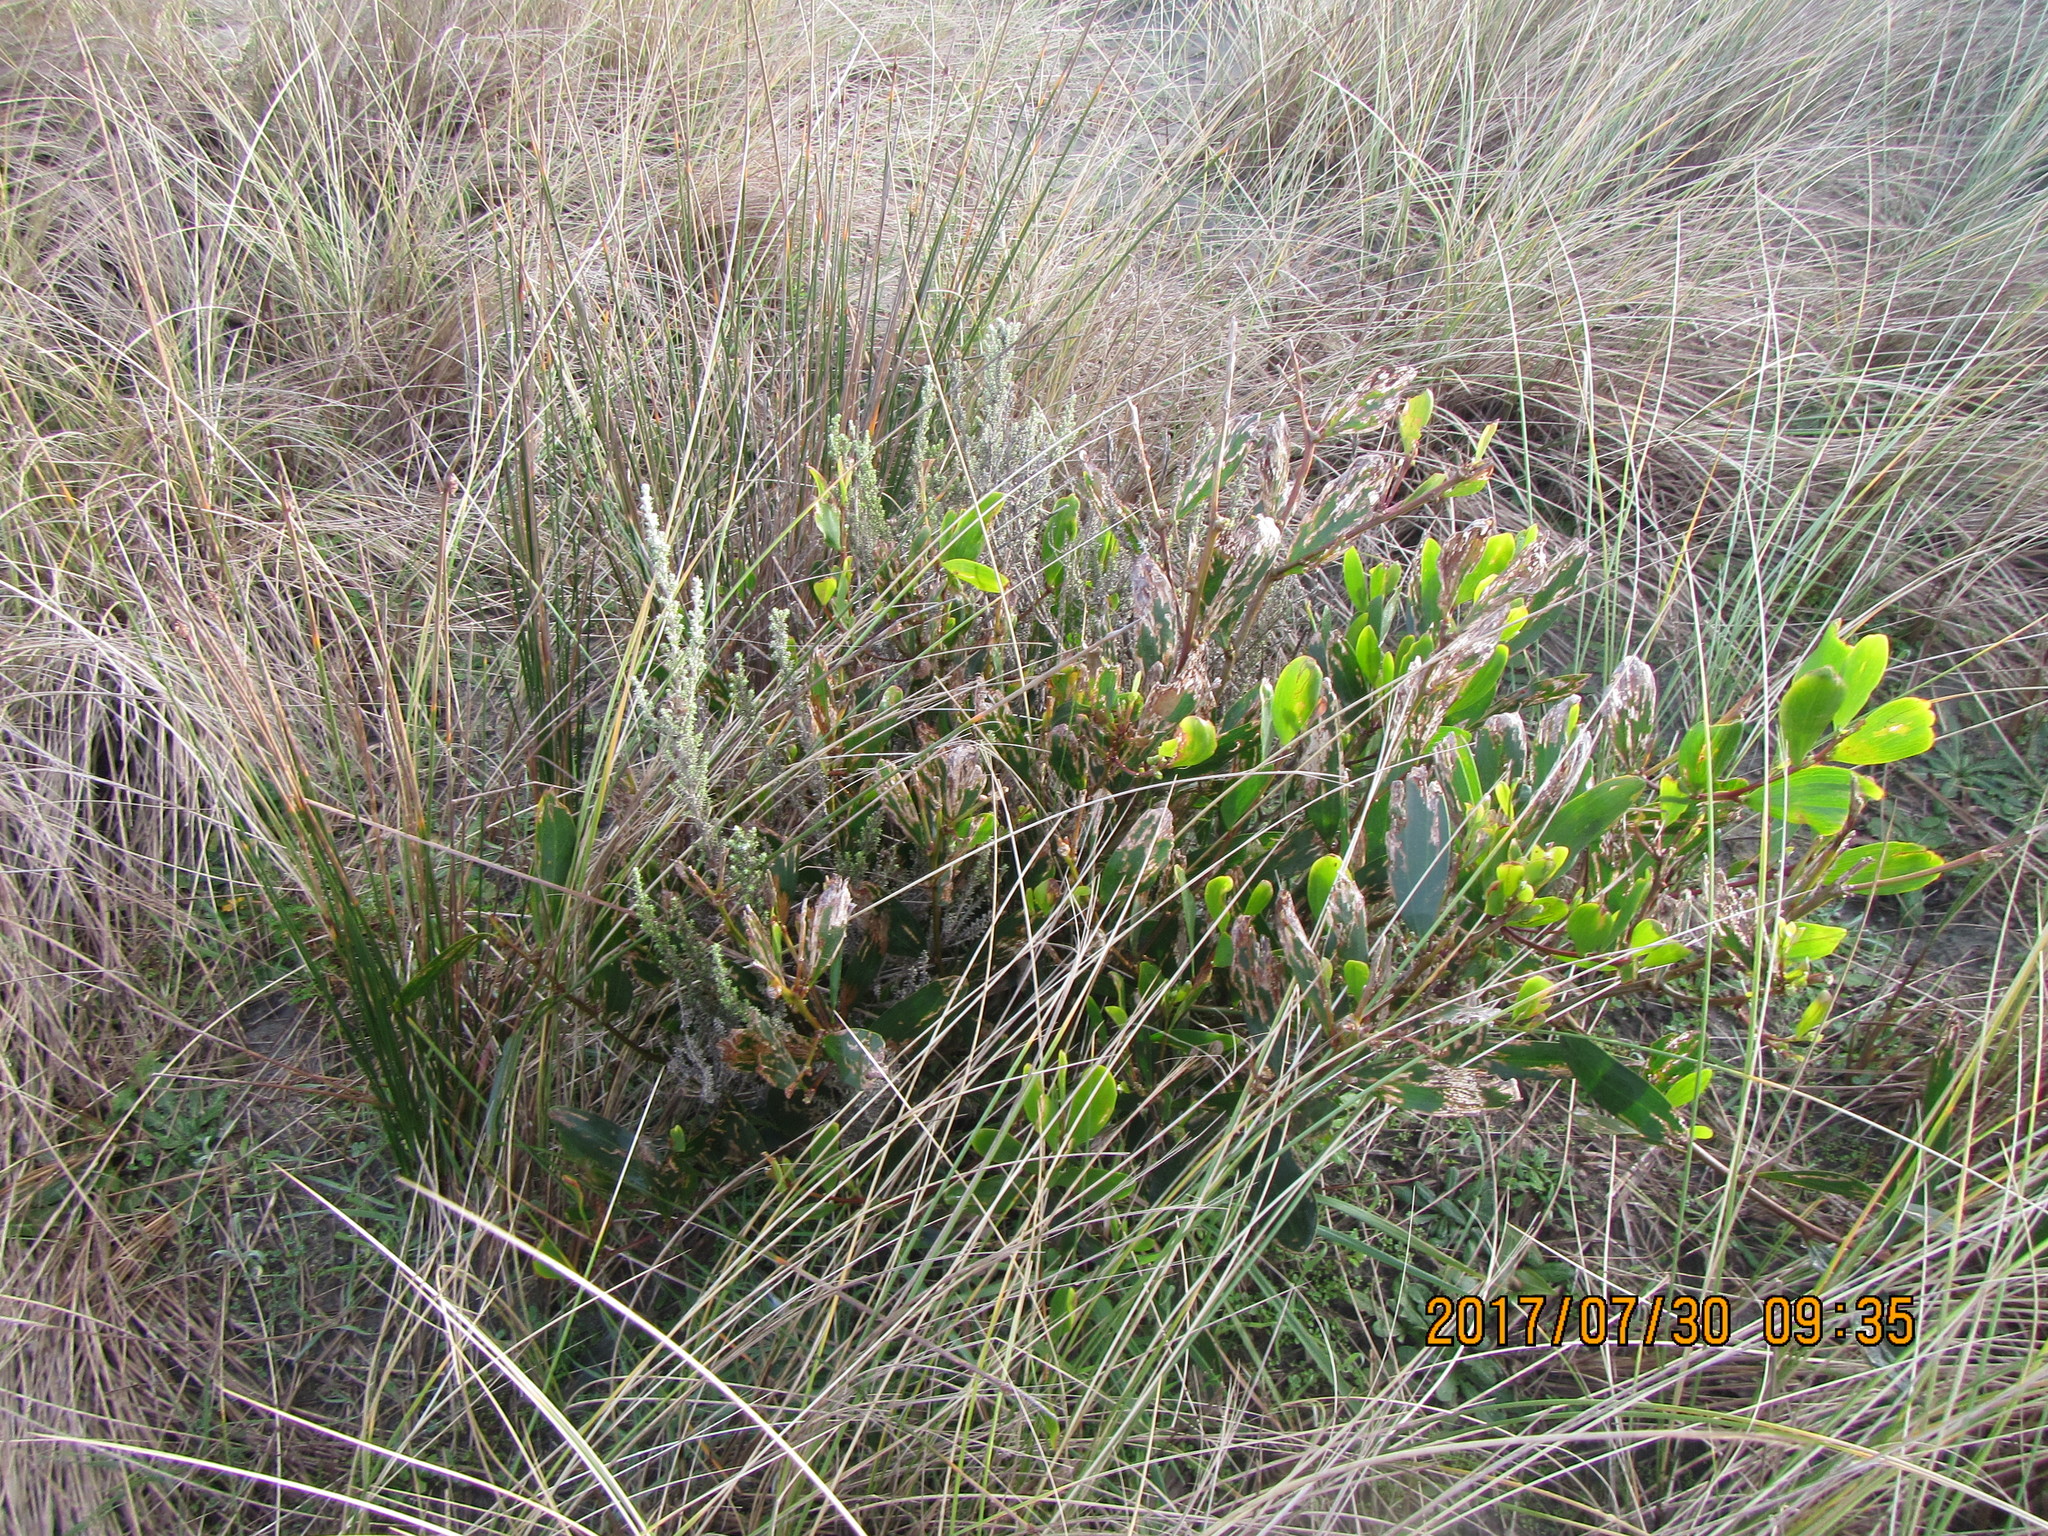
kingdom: Plantae
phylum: Tracheophyta
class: Magnoliopsida
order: Fabales
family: Fabaceae
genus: Acacia
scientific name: Acacia longifolia
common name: Sydney golden wattle
